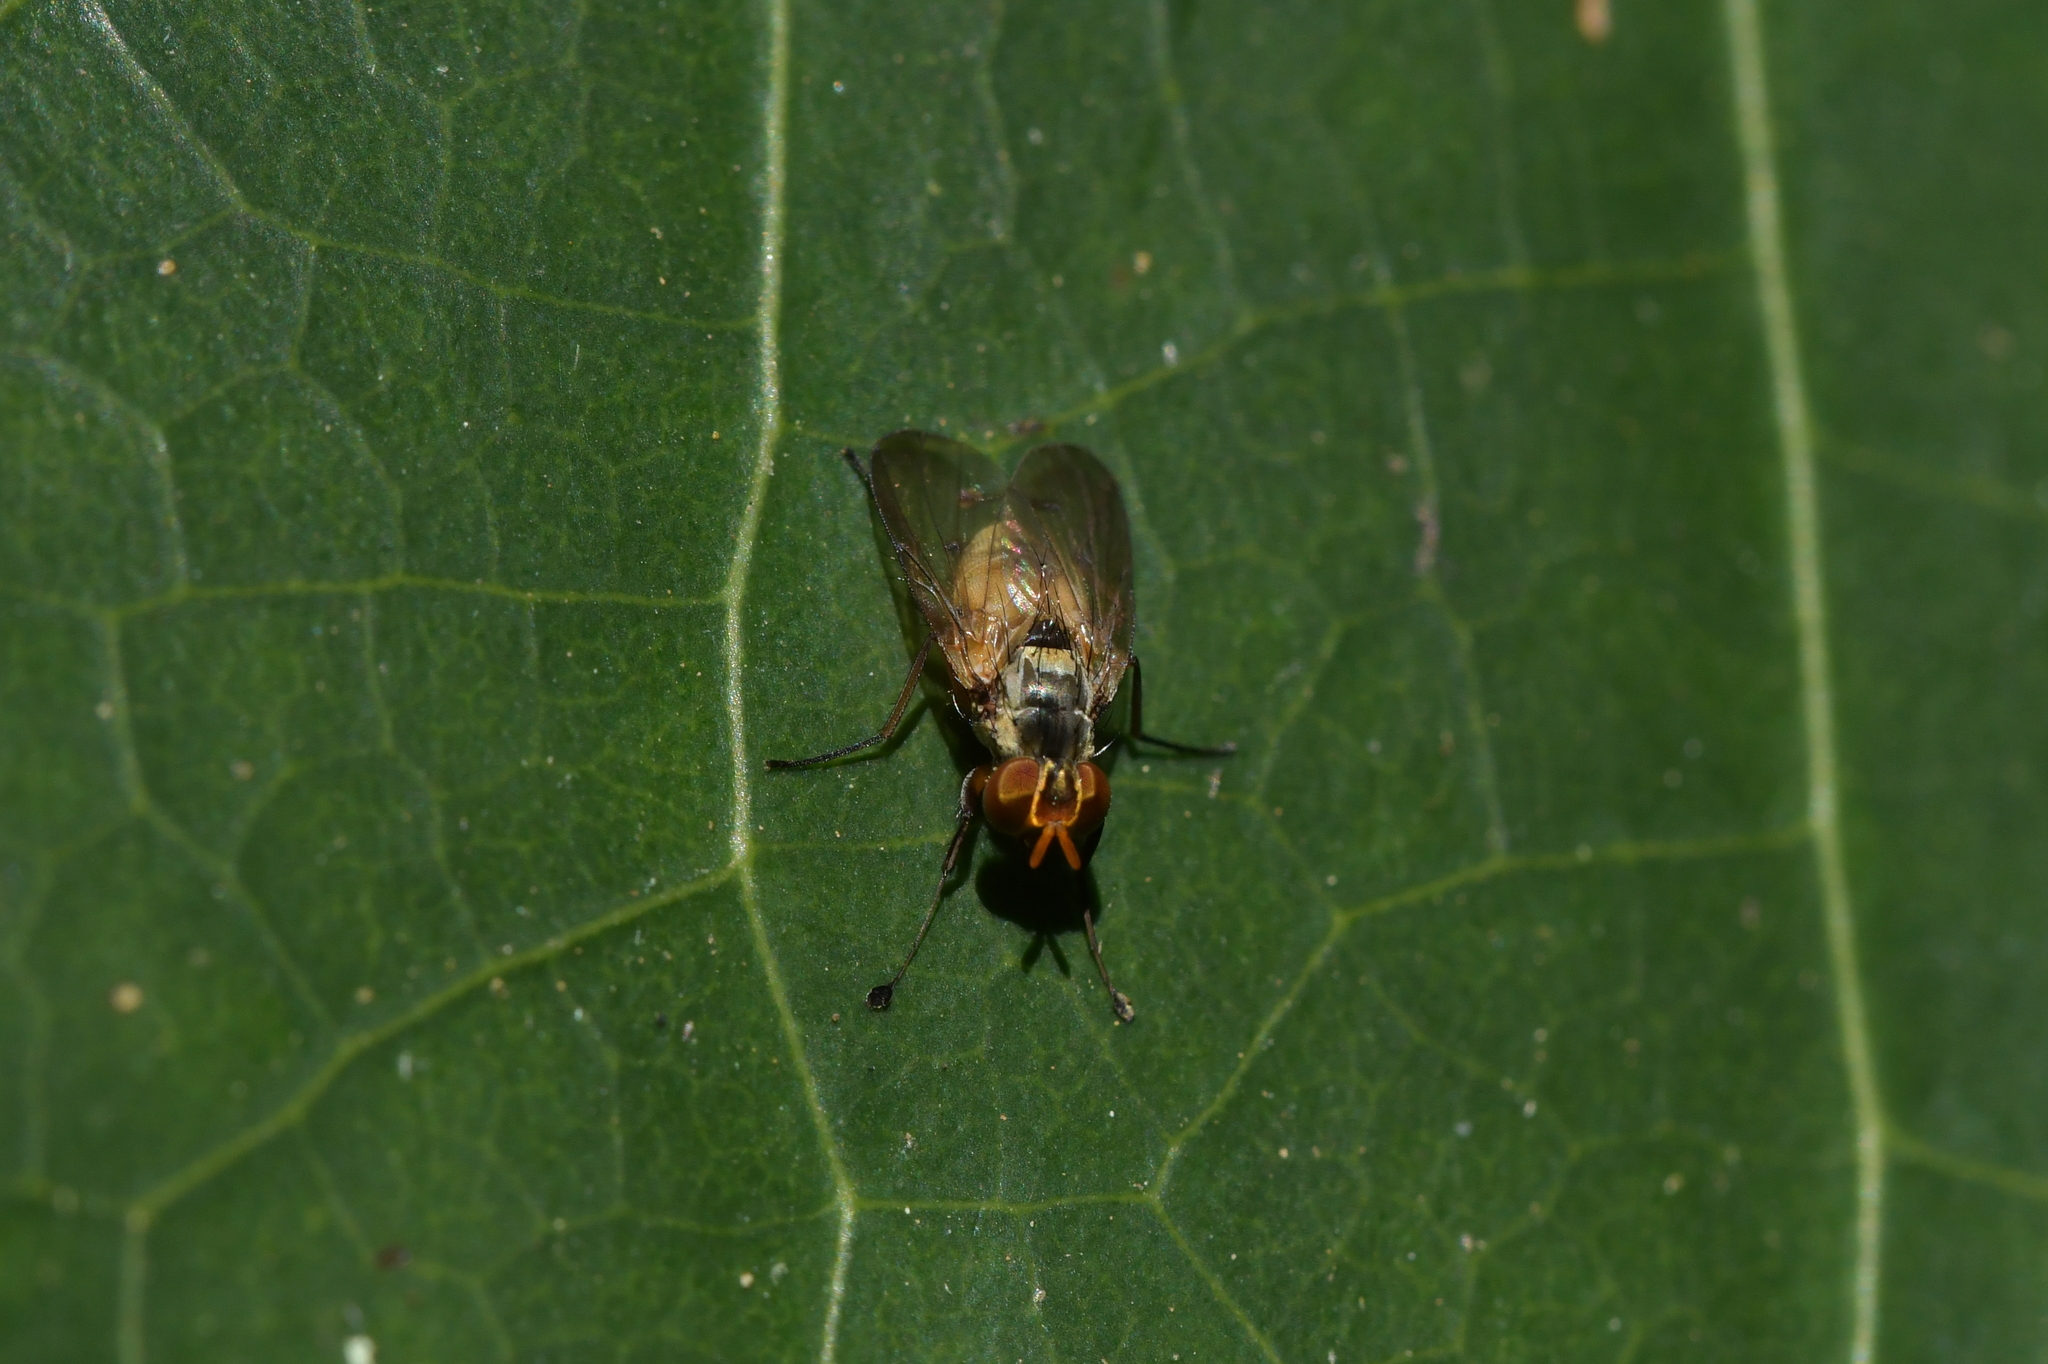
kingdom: Animalia
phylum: Arthropoda
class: Insecta
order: Diptera
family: Muscidae
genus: Spilogona
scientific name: Spilogona latimanus
